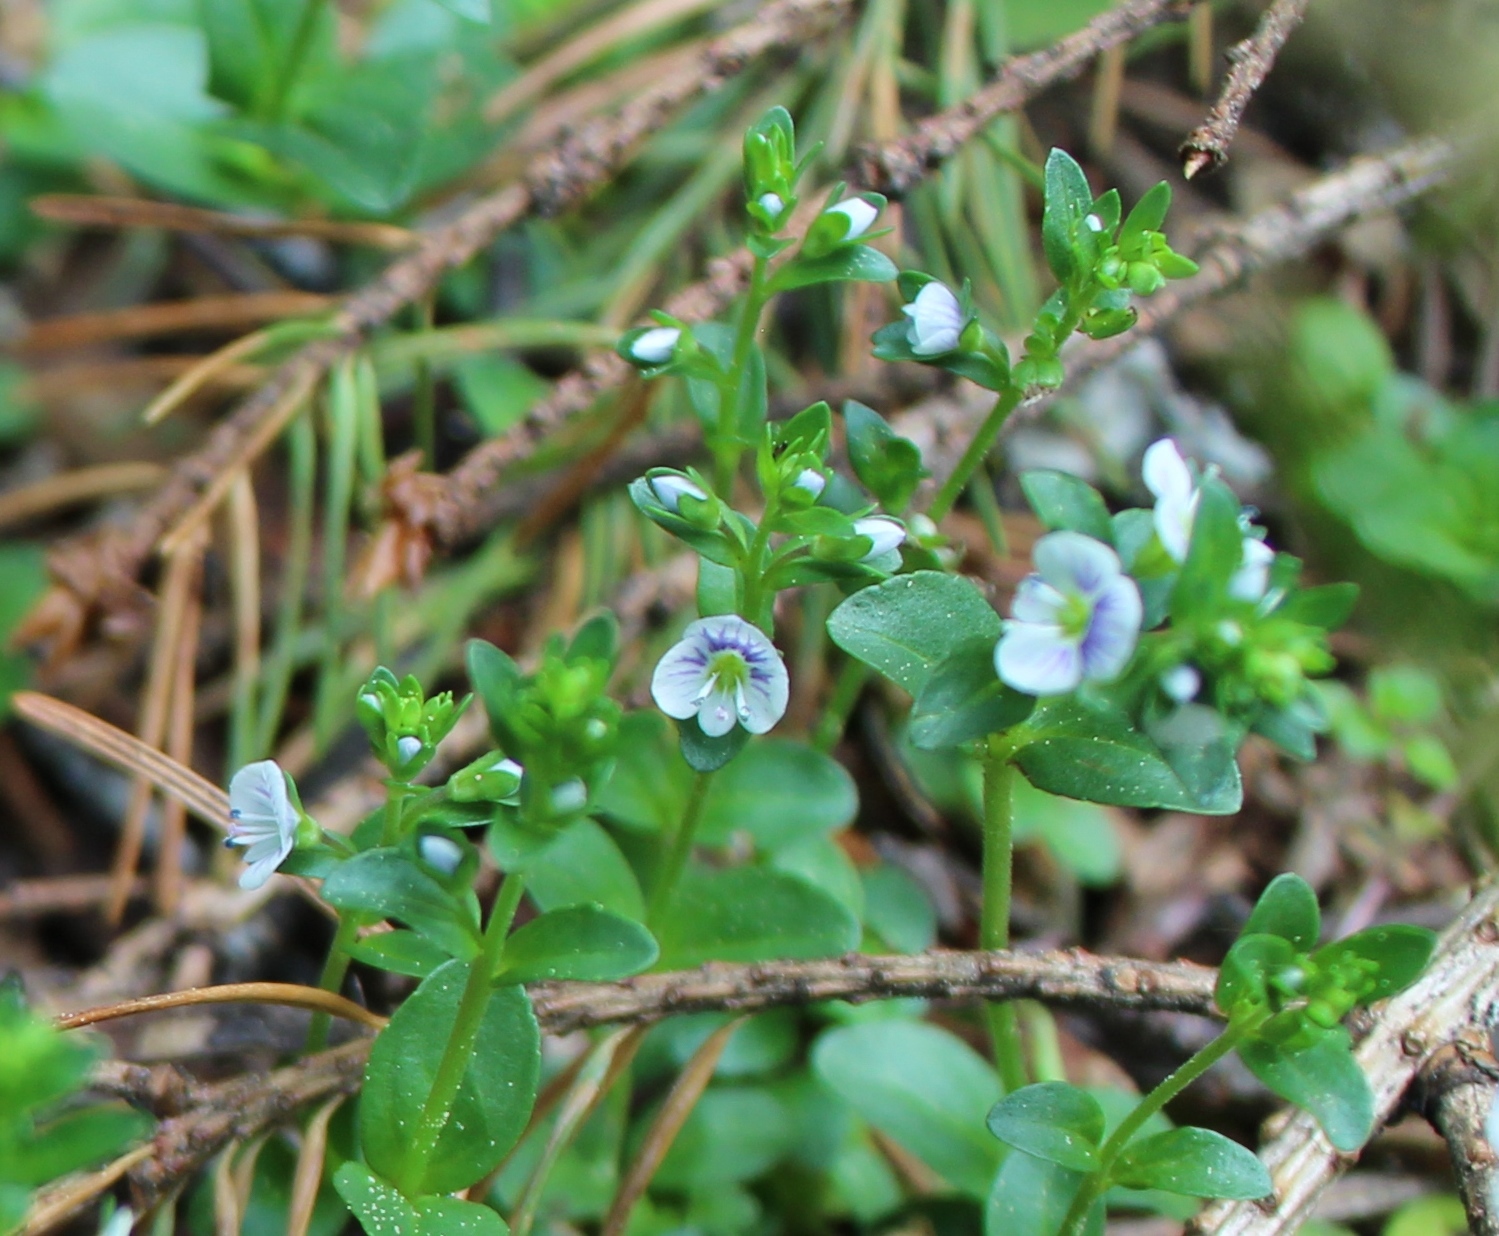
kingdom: Plantae
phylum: Tracheophyta
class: Magnoliopsida
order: Lamiales
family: Plantaginaceae
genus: Veronica
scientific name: Veronica serpyllifolia
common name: Thyme-leaved speedwell
